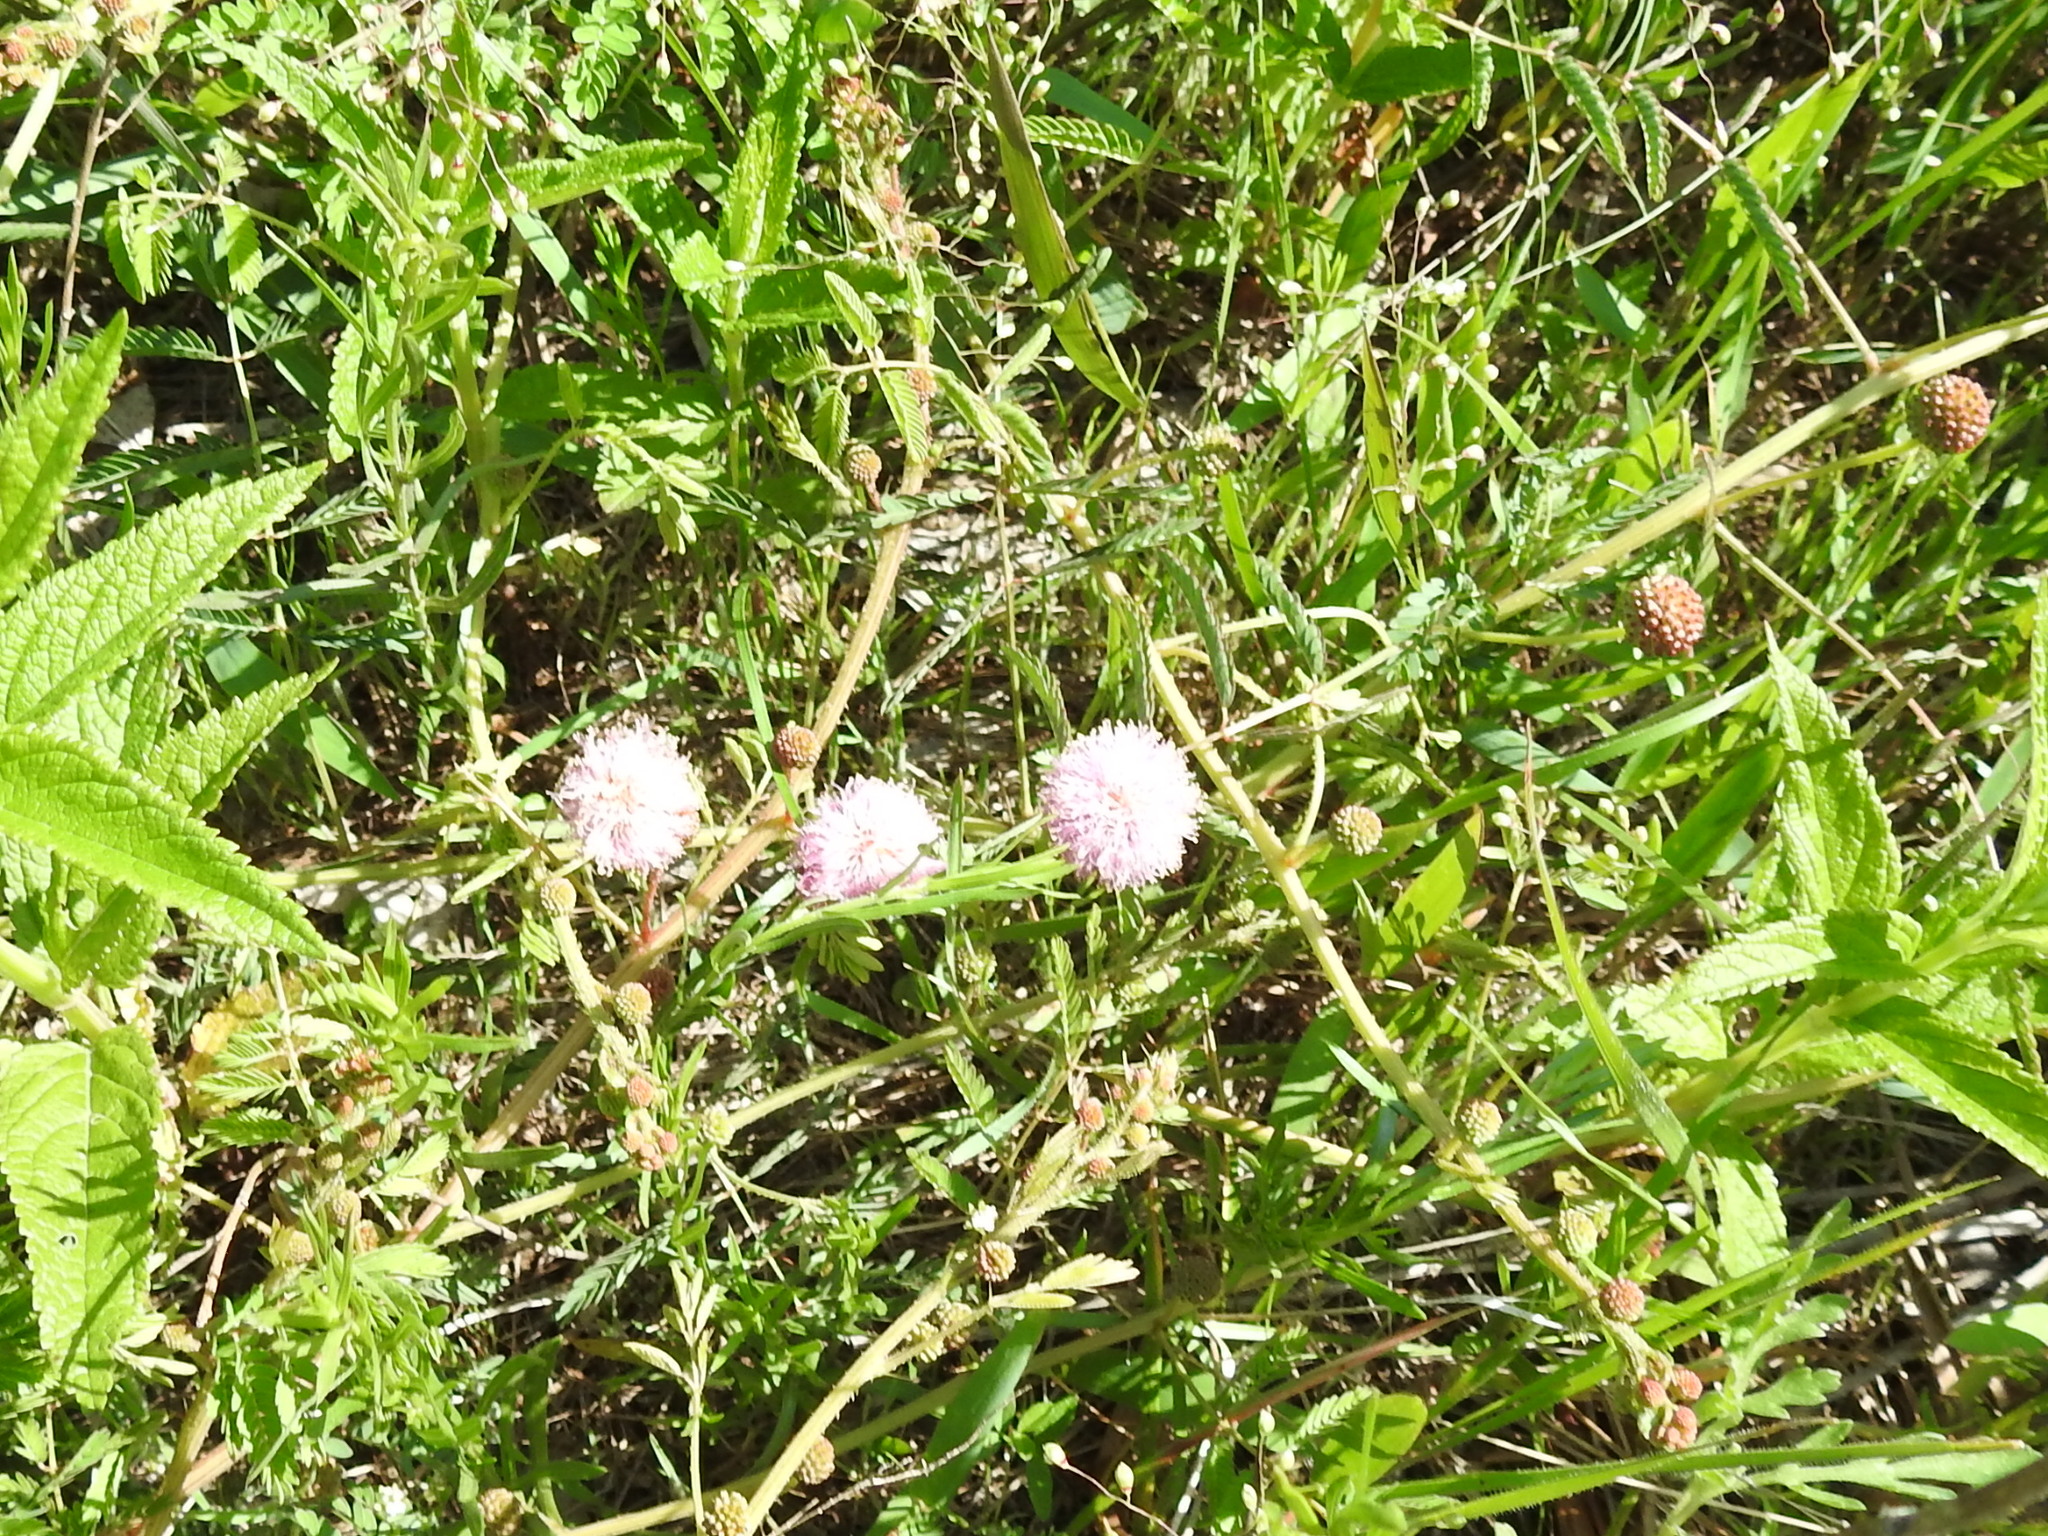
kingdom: Plantae
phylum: Tracheophyta
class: Magnoliopsida
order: Fabales
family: Fabaceae
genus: Mimosa
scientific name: Mimosa quadrivalvis
